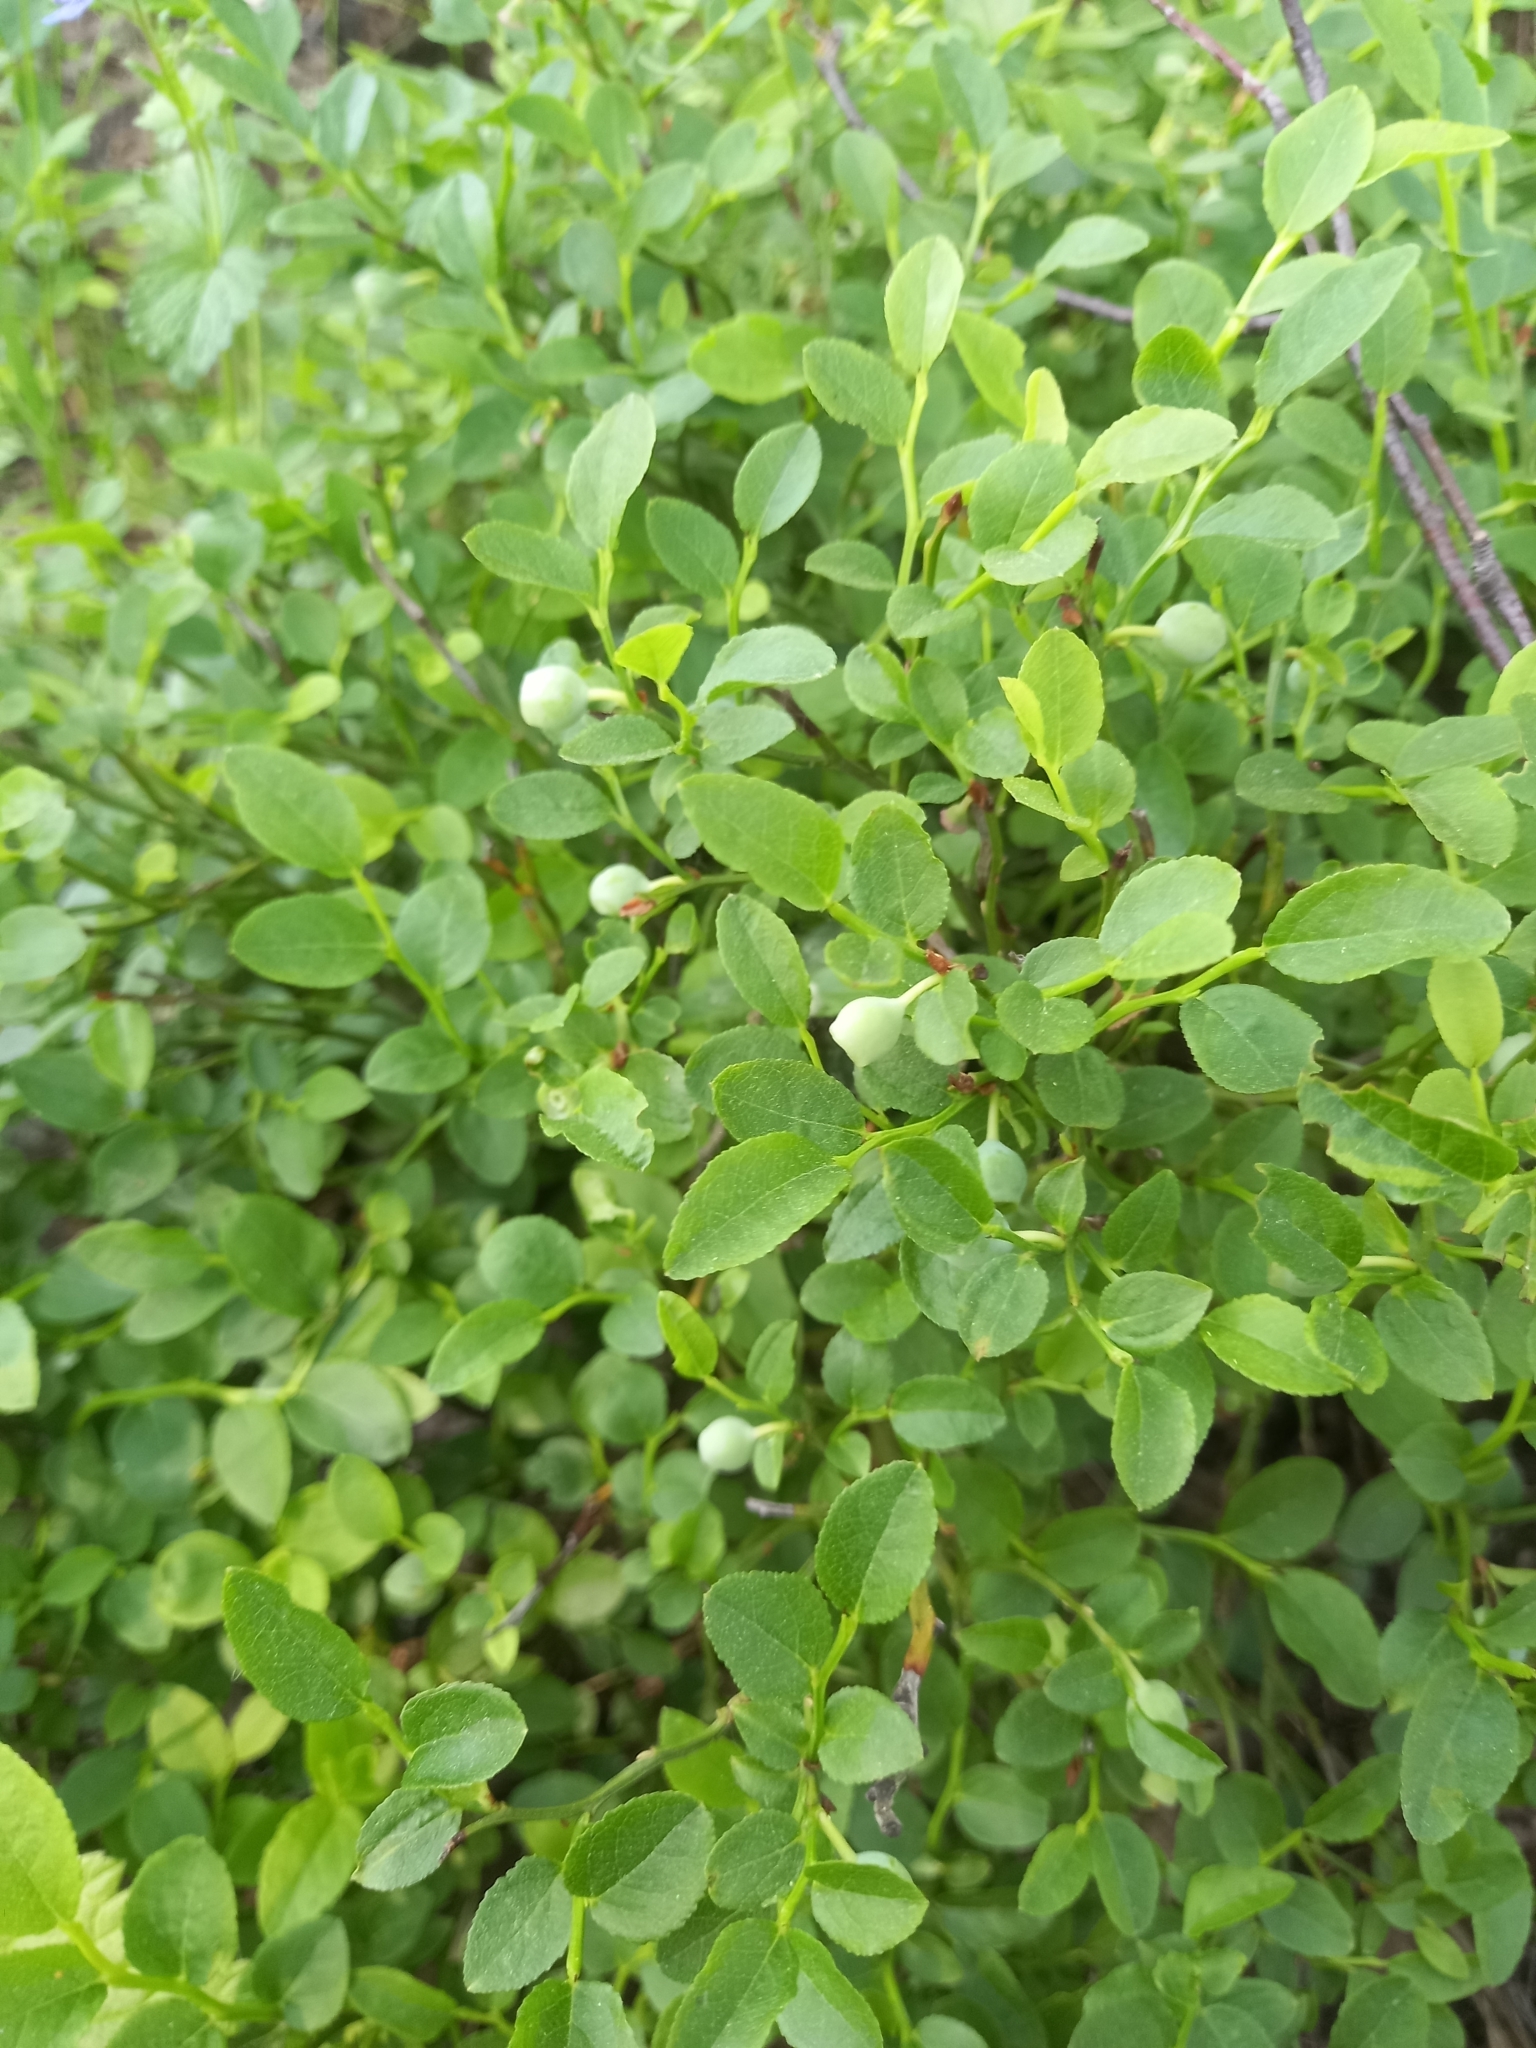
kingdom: Plantae
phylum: Tracheophyta
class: Magnoliopsida
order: Ericales
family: Ericaceae
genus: Vaccinium
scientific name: Vaccinium myrtillus
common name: Bilberry
